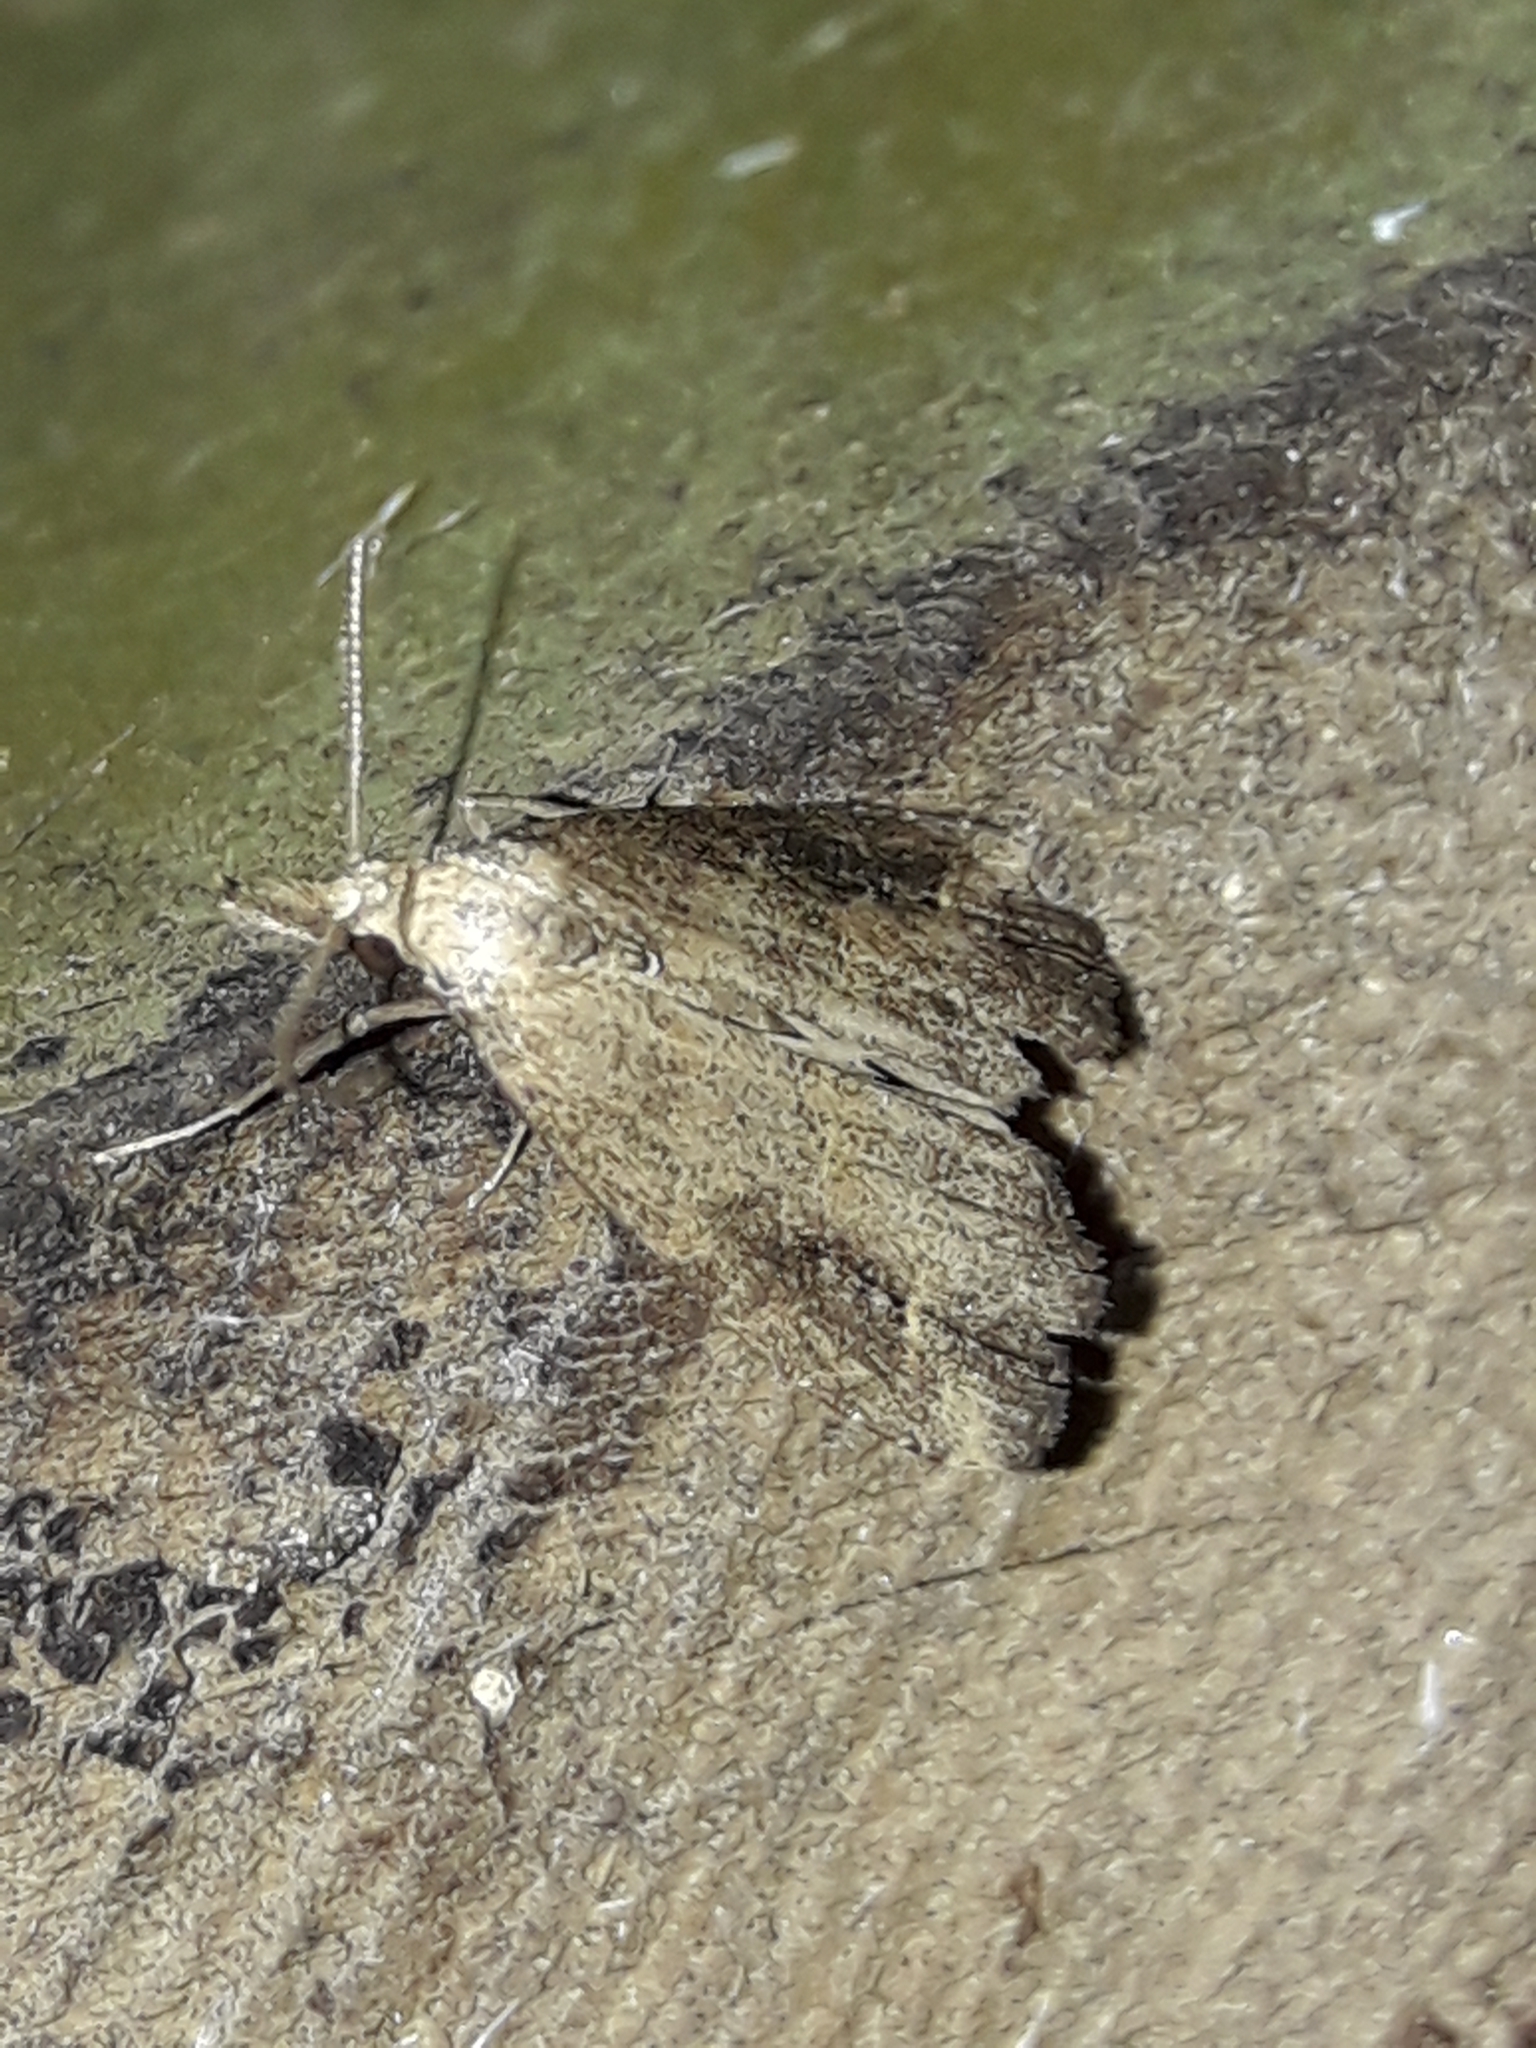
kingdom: Animalia
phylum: Arthropoda
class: Insecta
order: Lepidoptera
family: Erebidae
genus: Schrankia
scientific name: Schrankia costaestrigalis
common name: Pinion-streaked snout
